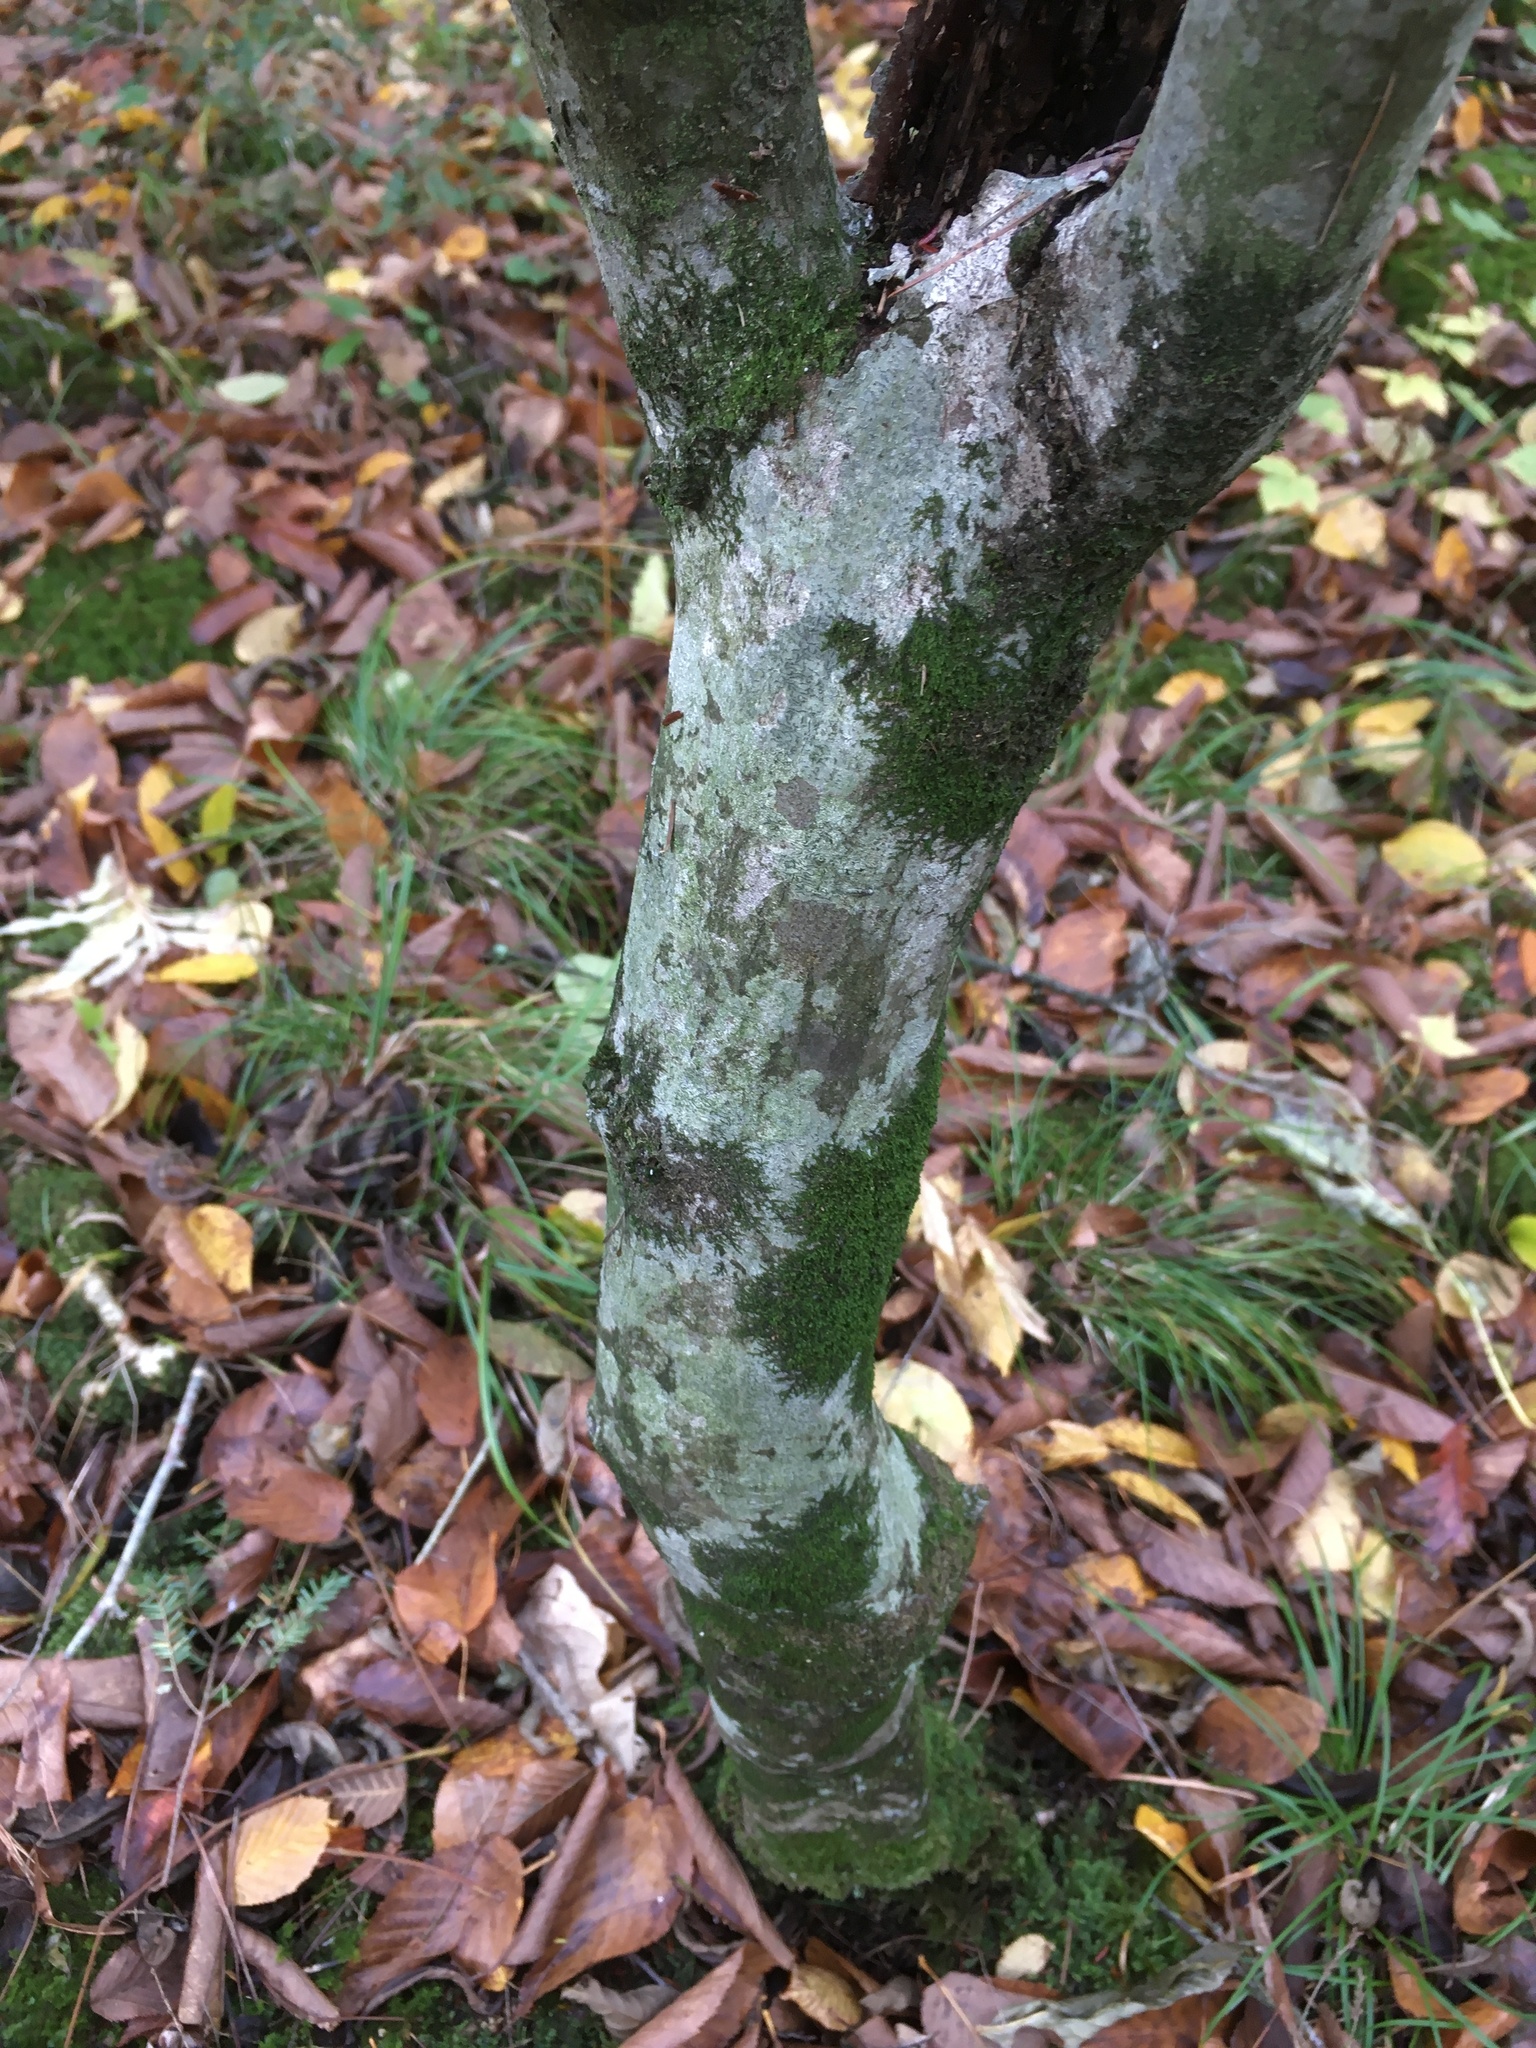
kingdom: Plantae
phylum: Tracheophyta
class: Magnoliopsida
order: Fagales
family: Betulaceae
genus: Carpinus
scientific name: Carpinus caroliniana
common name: American hornbeam
